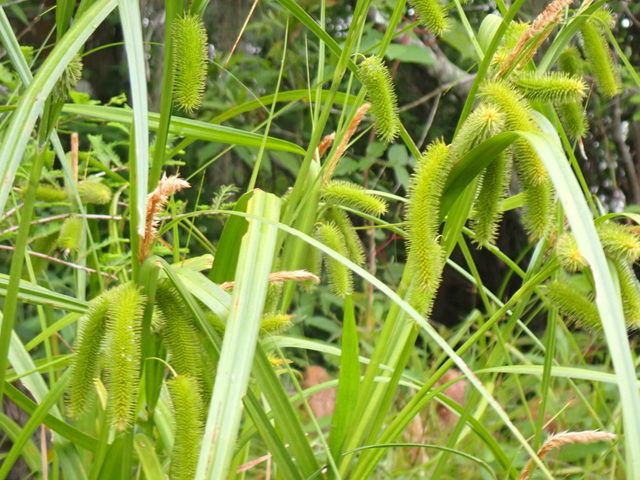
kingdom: Plantae
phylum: Tracheophyta
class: Liliopsida
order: Poales
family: Cyperaceae
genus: Carex
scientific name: Carex comosa
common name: Bristly sedge
